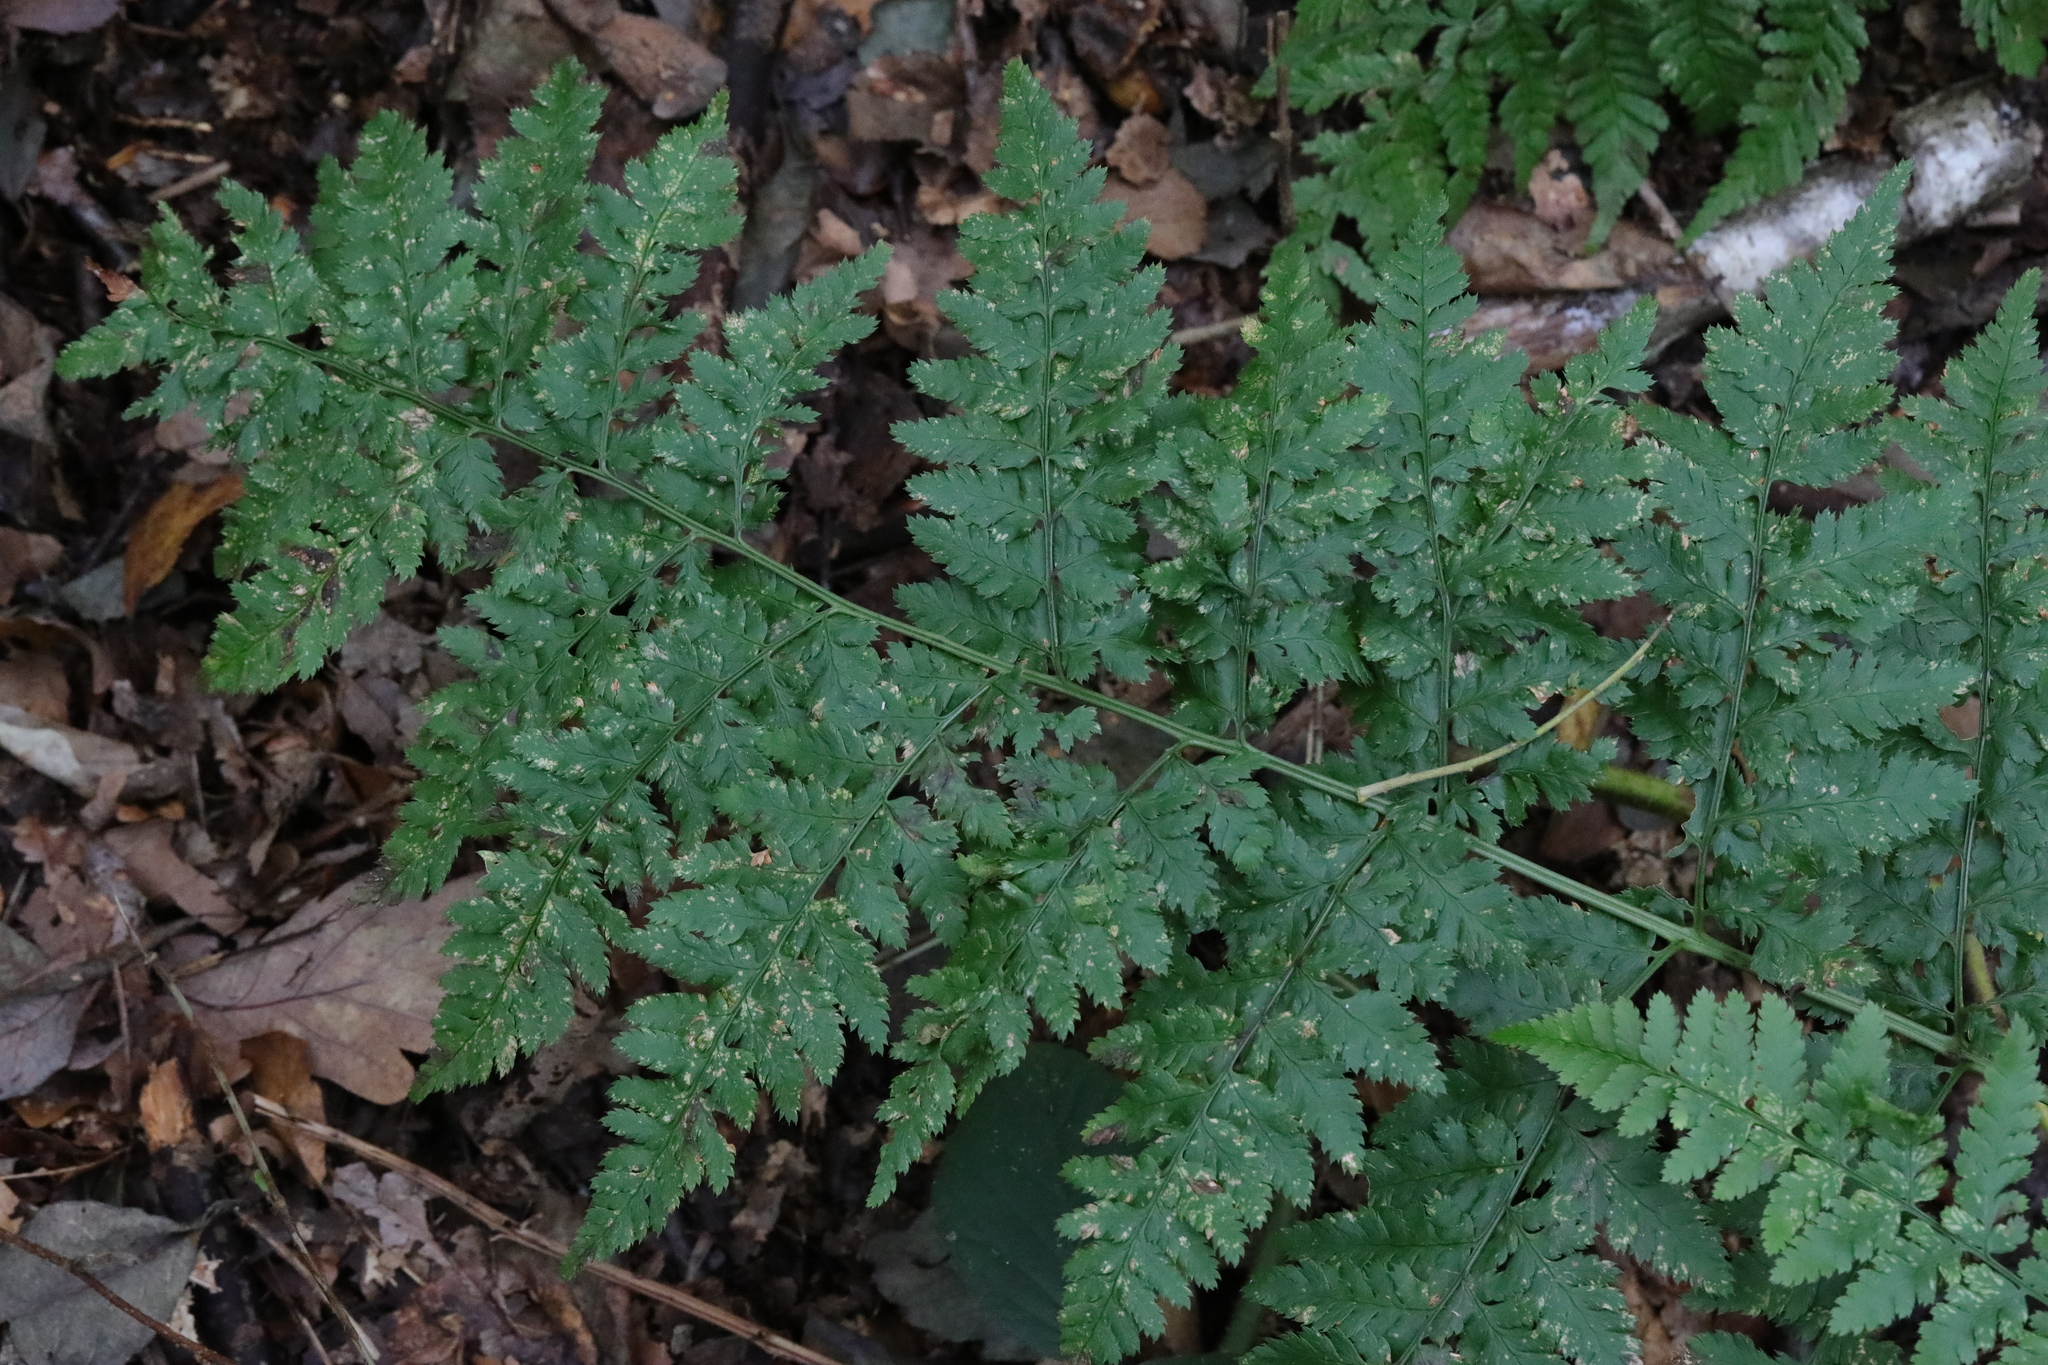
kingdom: Plantae
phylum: Tracheophyta
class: Polypodiopsida
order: Polypodiales
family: Dryopteridaceae
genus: Dryopteris
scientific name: Dryopteris dilatata
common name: Broad buckler-fern
